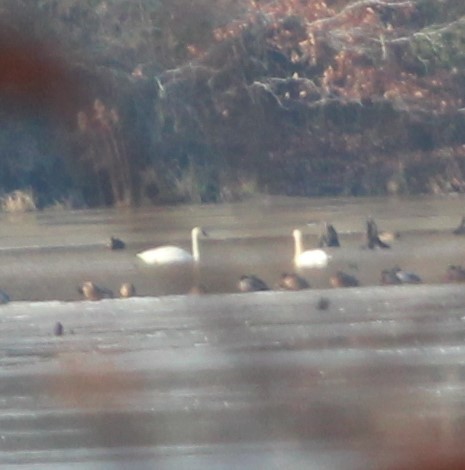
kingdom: Animalia
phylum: Chordata
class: Aves
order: Anseriformes
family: Anatidae
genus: Cygnus
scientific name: Cygnus columbianus
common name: Tundra swan
